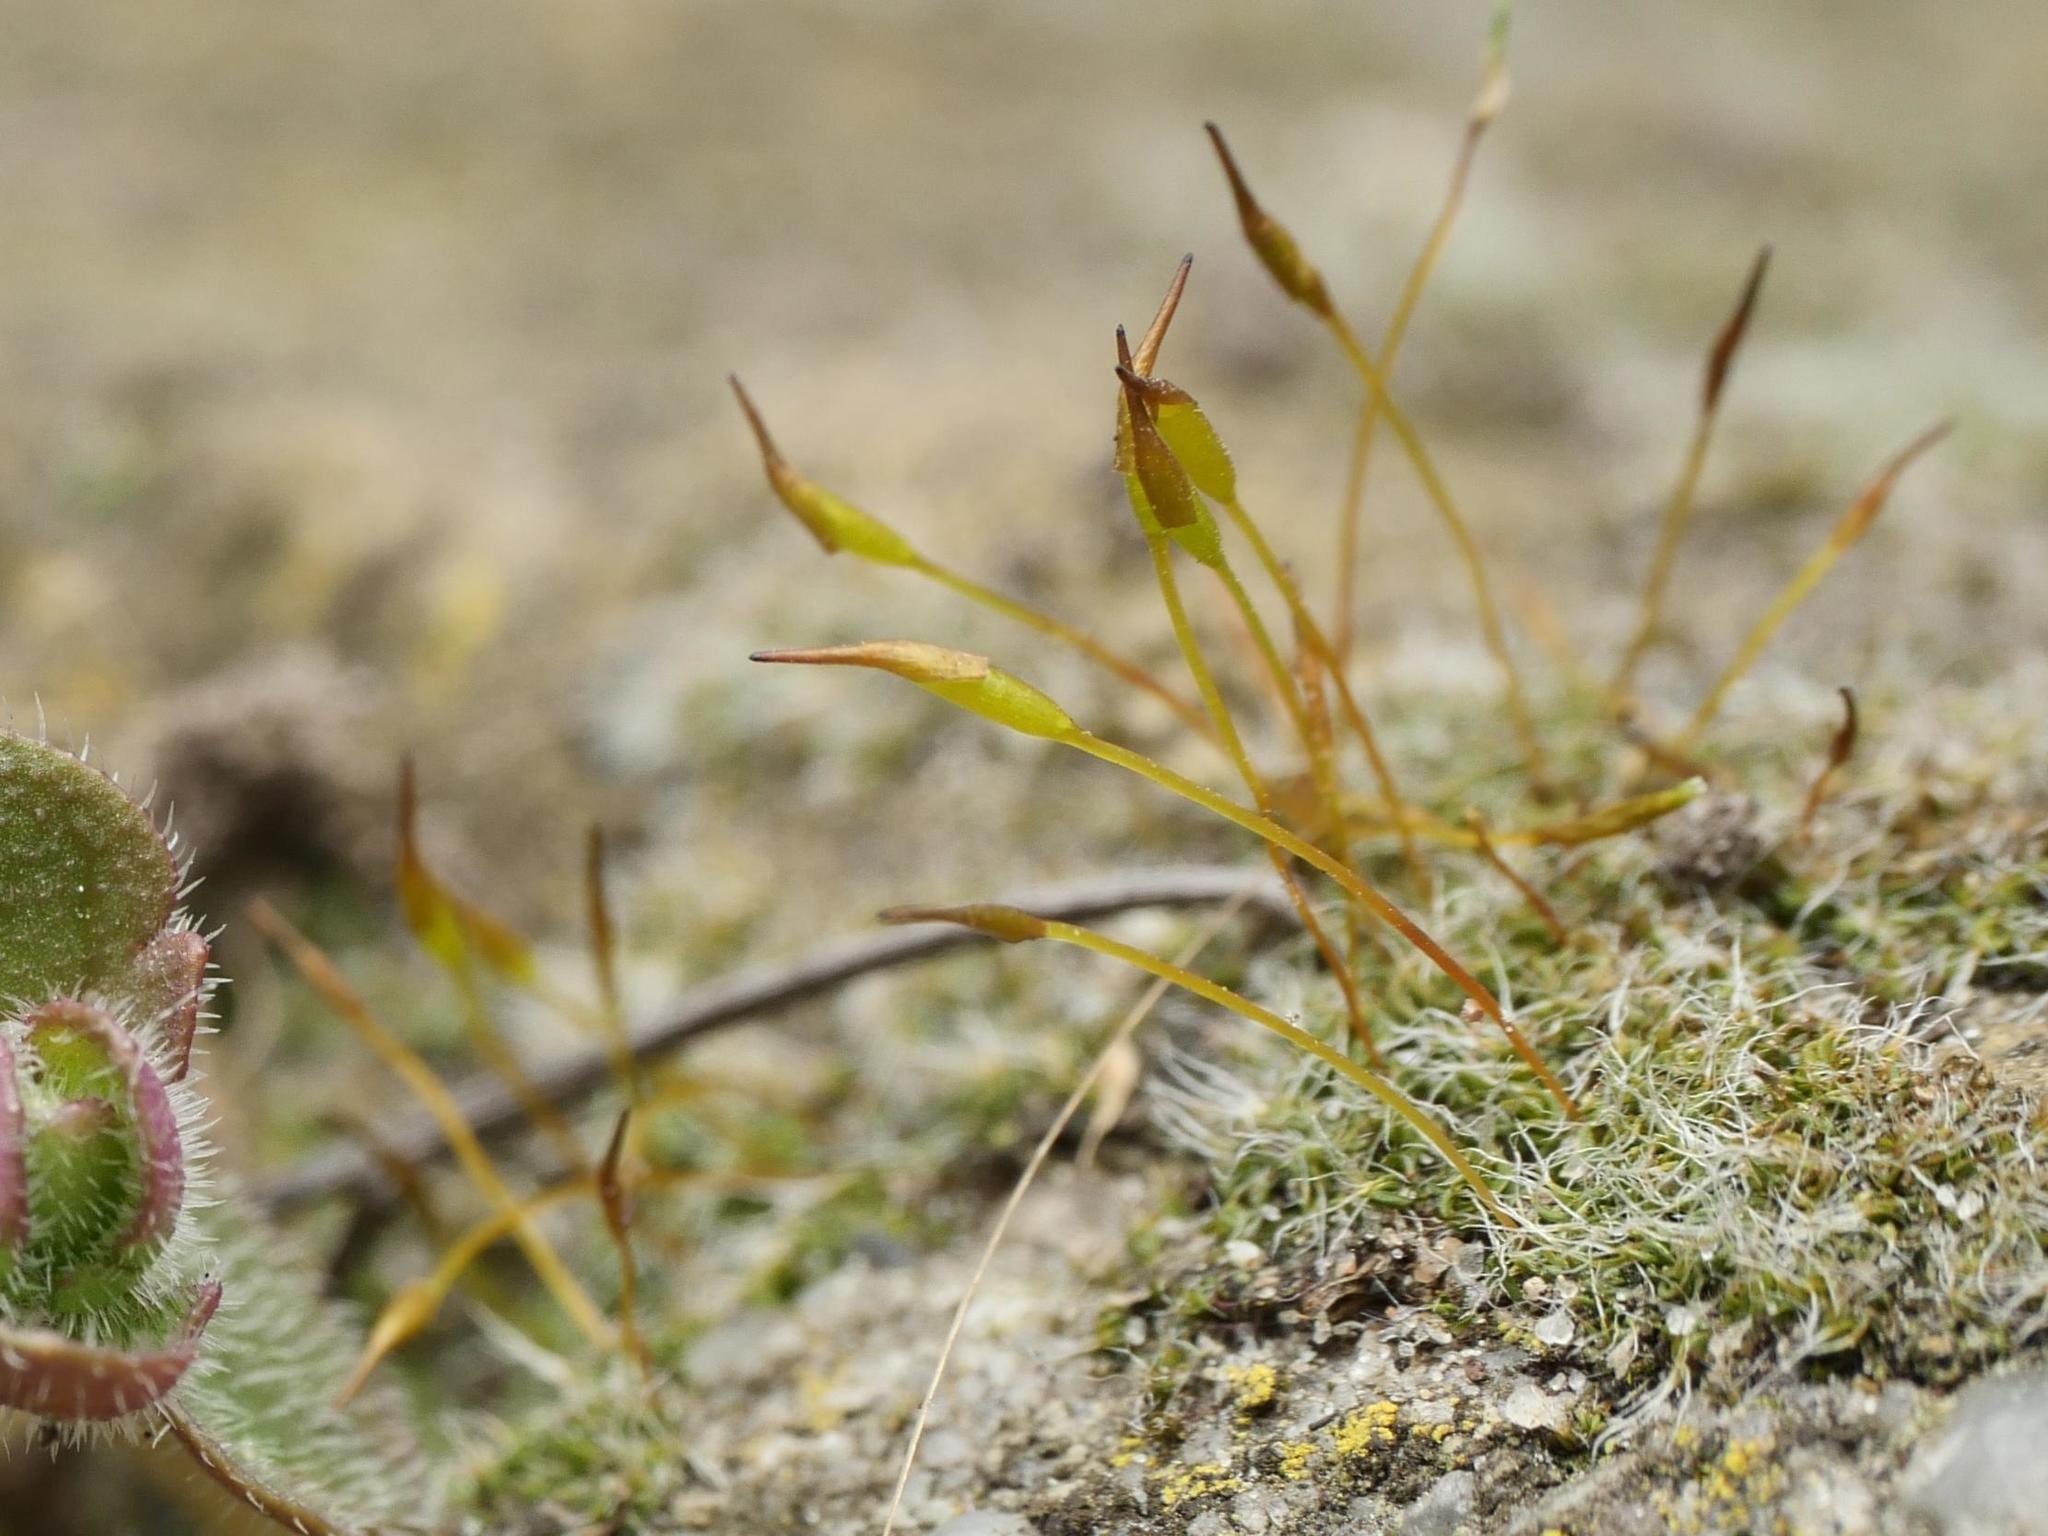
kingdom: Plantae
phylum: Bryophyta
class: Bryopsida
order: Pottiales
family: Pottiaceae
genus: Tortula
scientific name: Tortula muralis
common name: Wall screw-moss
